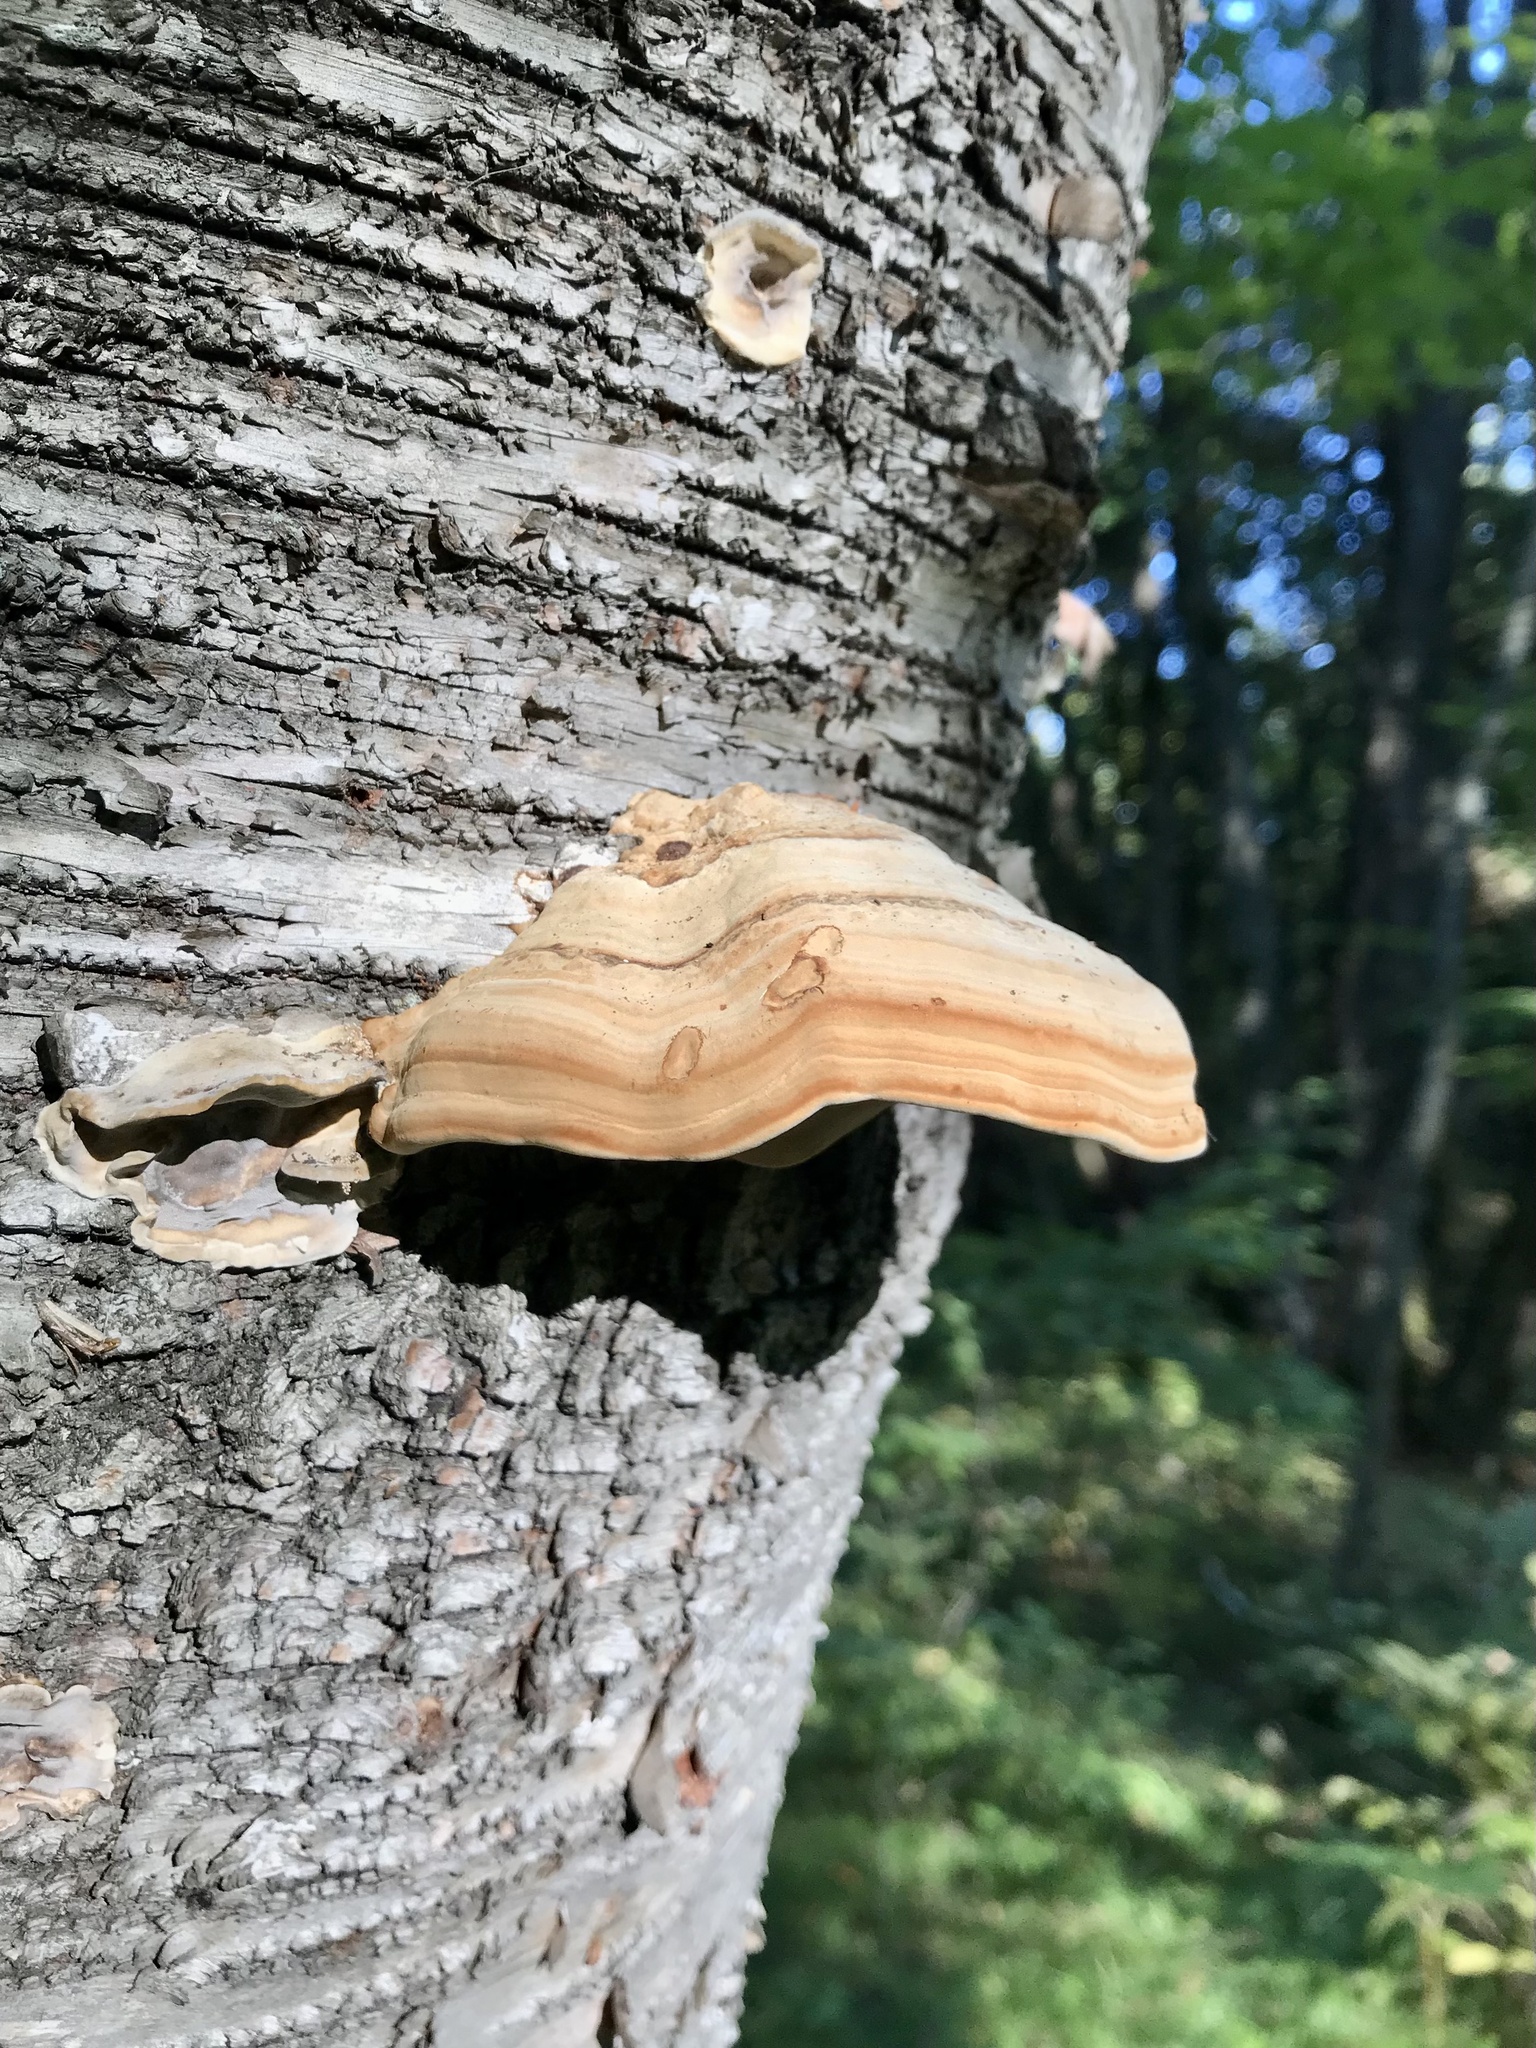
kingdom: Fungi
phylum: Basidiomycota
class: Agaricomycetes
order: Polyporales
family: Polyporaceae
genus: Fomes
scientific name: Fomes fomentarius
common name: Hoof fungus
